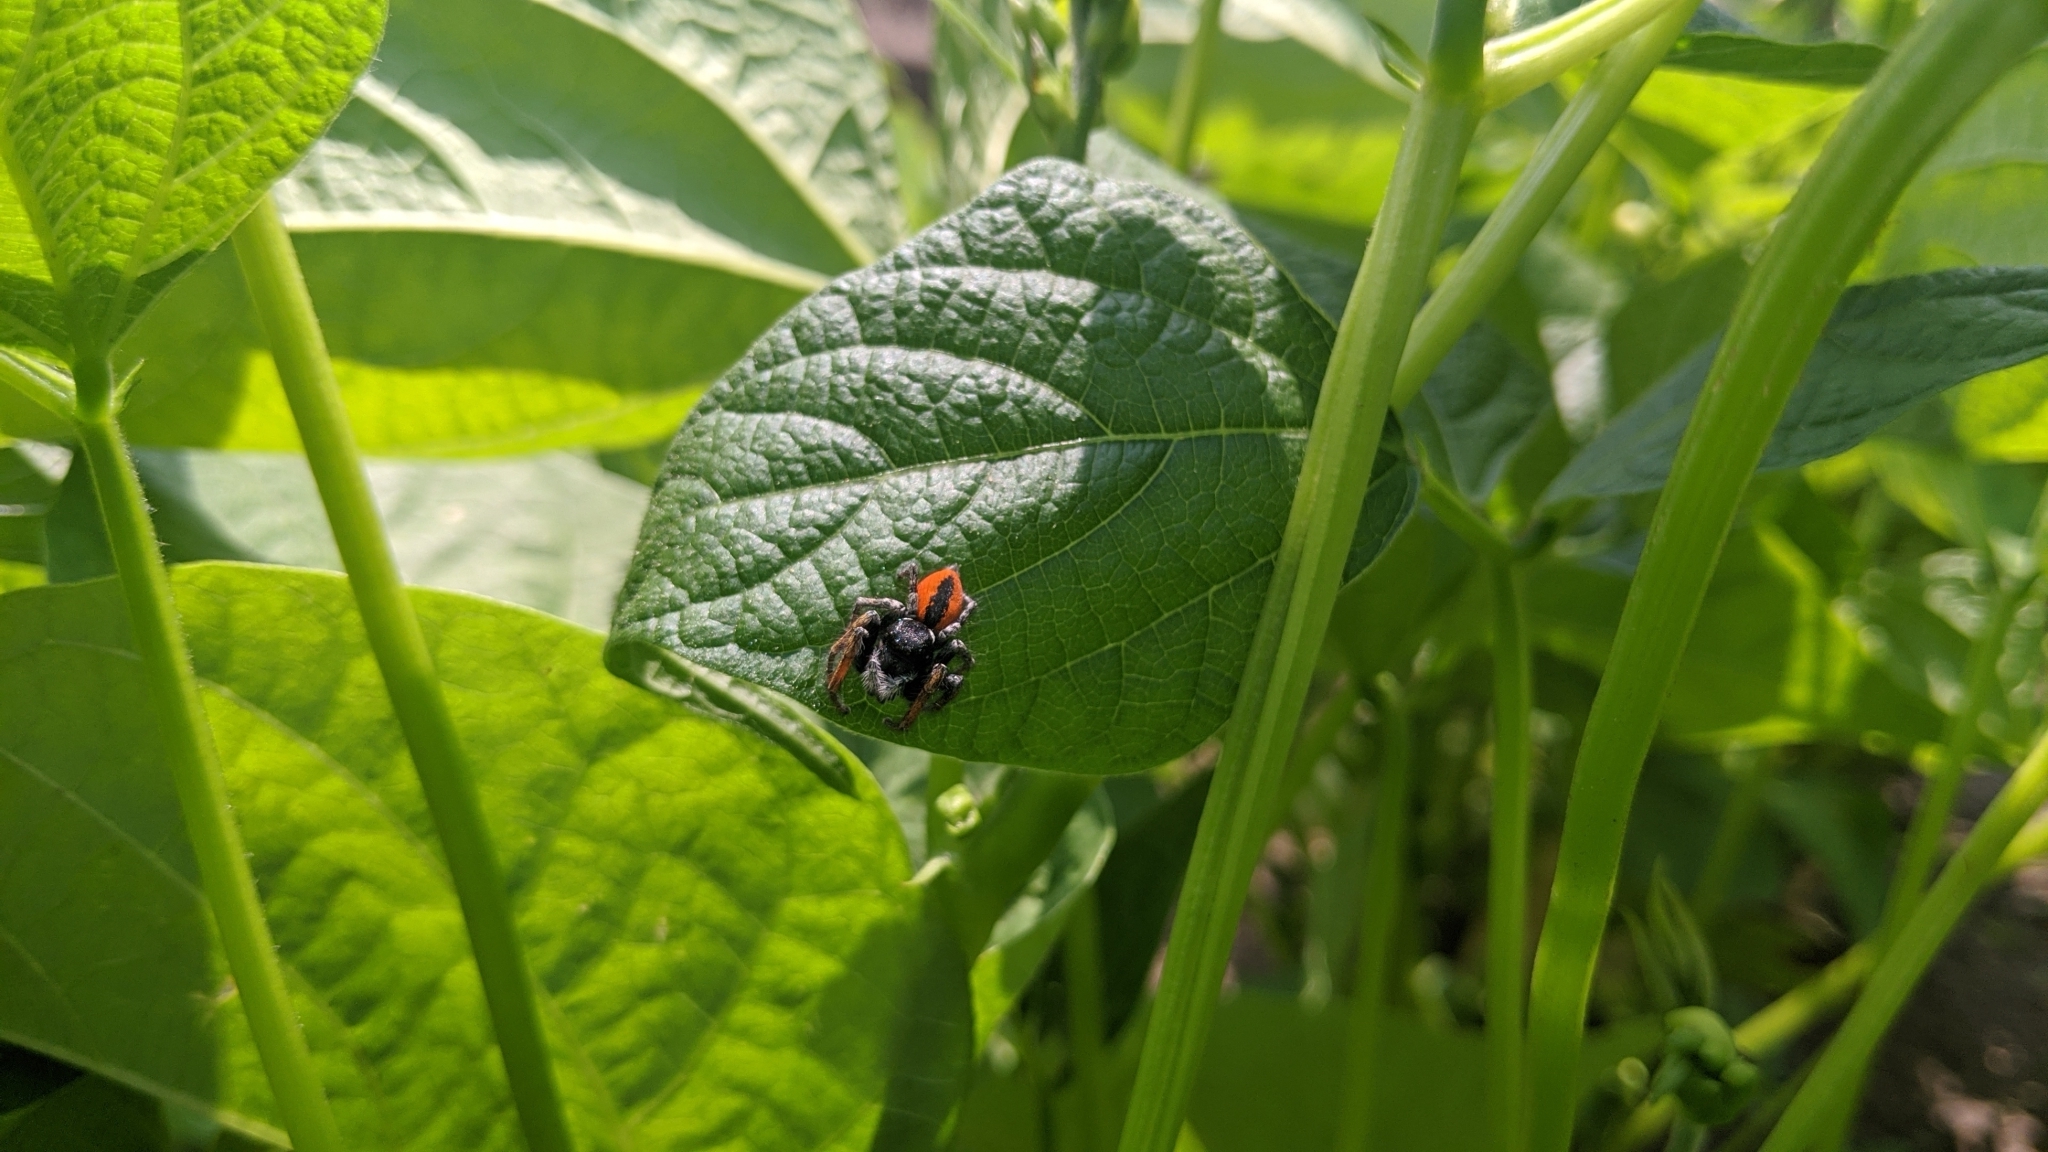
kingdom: Animalia
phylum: Arthropoda
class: Arachnida
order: Araneae
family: Salticidae
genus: Philaeus
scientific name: Philaeus chrysops
